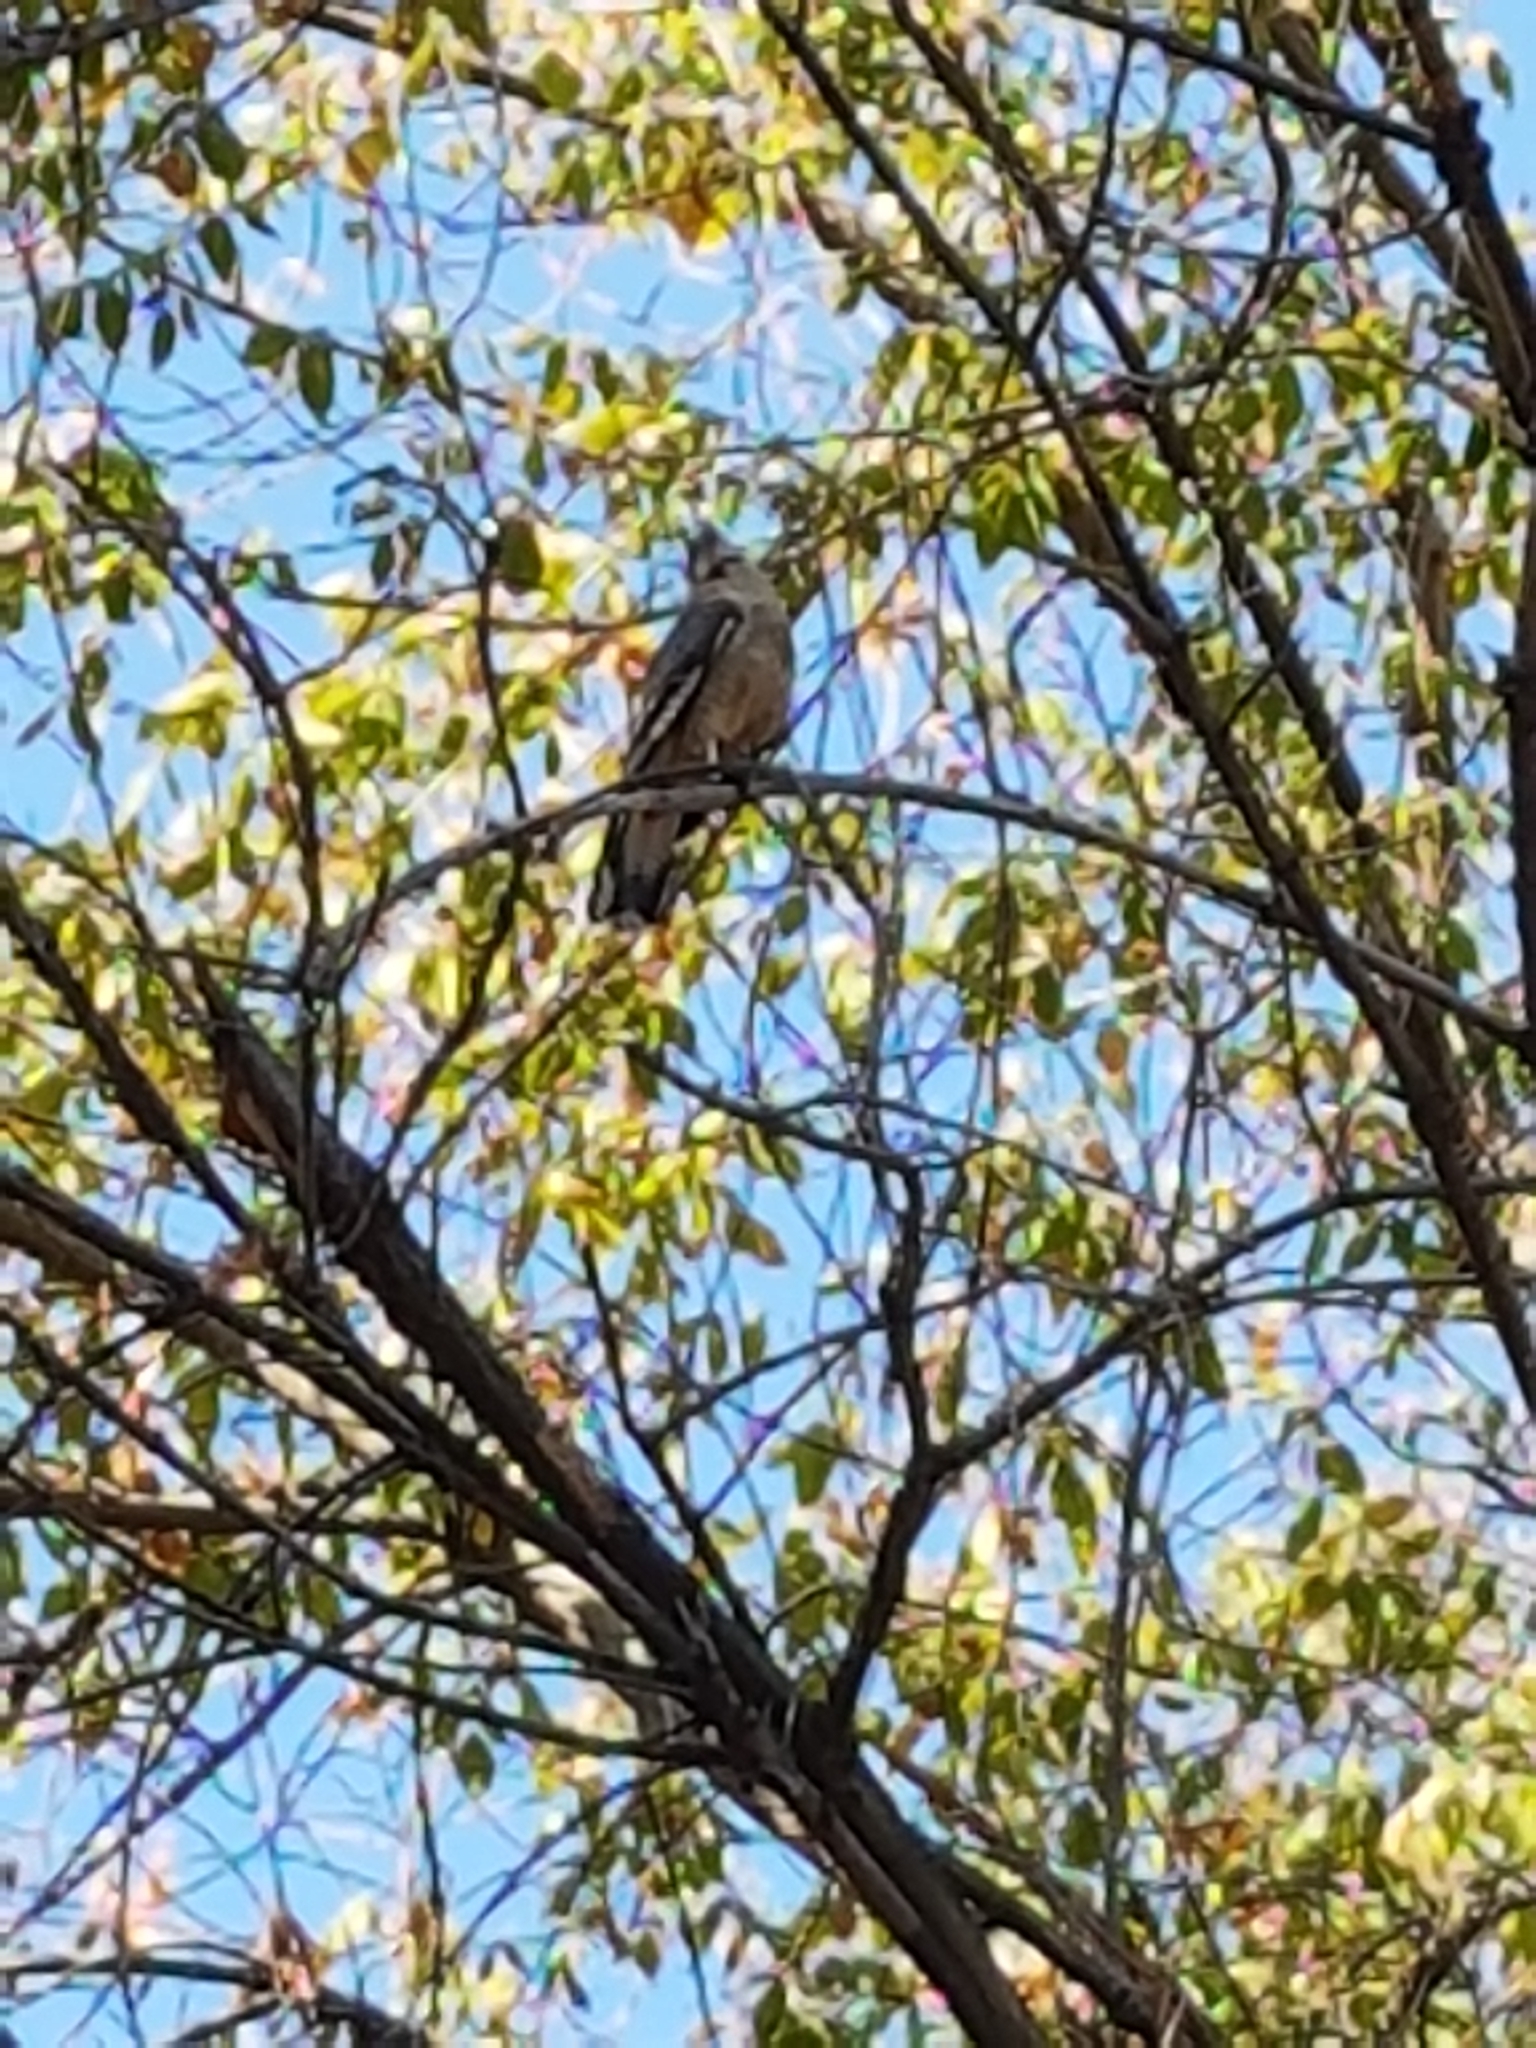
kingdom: Animalia
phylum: Chordata
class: Aves
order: Falconiformes
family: Falconidae
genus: Daptrius
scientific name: Daptrius
